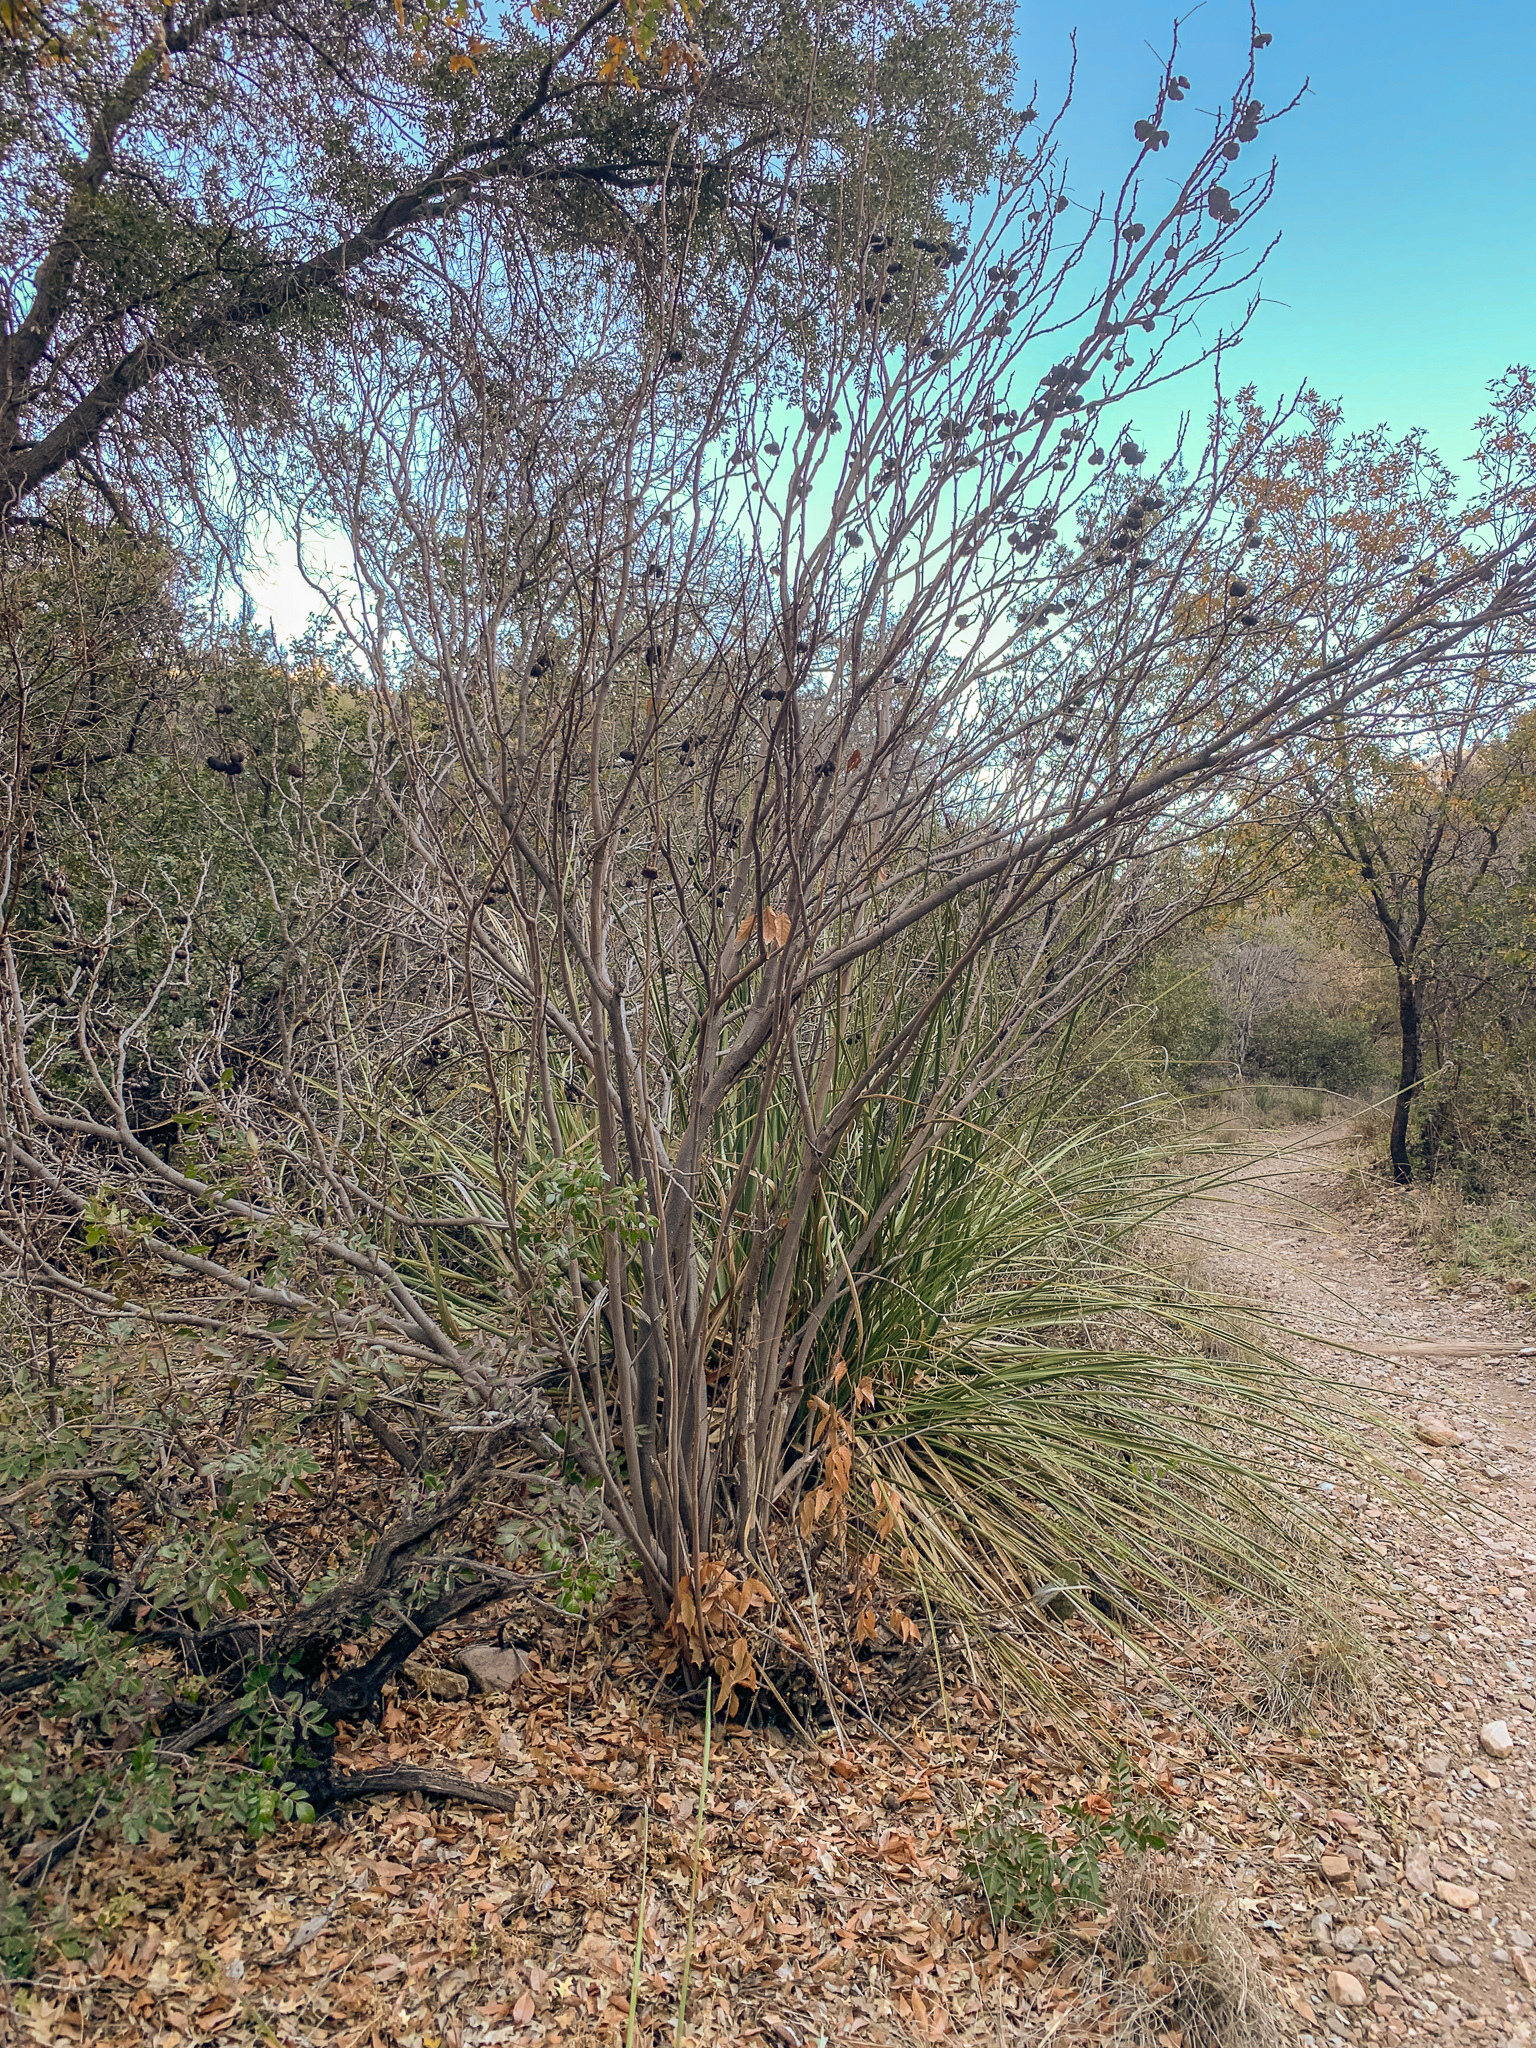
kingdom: Plantae
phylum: Tracheophyta
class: Magnoliopsida
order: Sapindales
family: Sapindaceae
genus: Ungnadia
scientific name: Ungnadia speciosa
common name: Texas-buckeye
